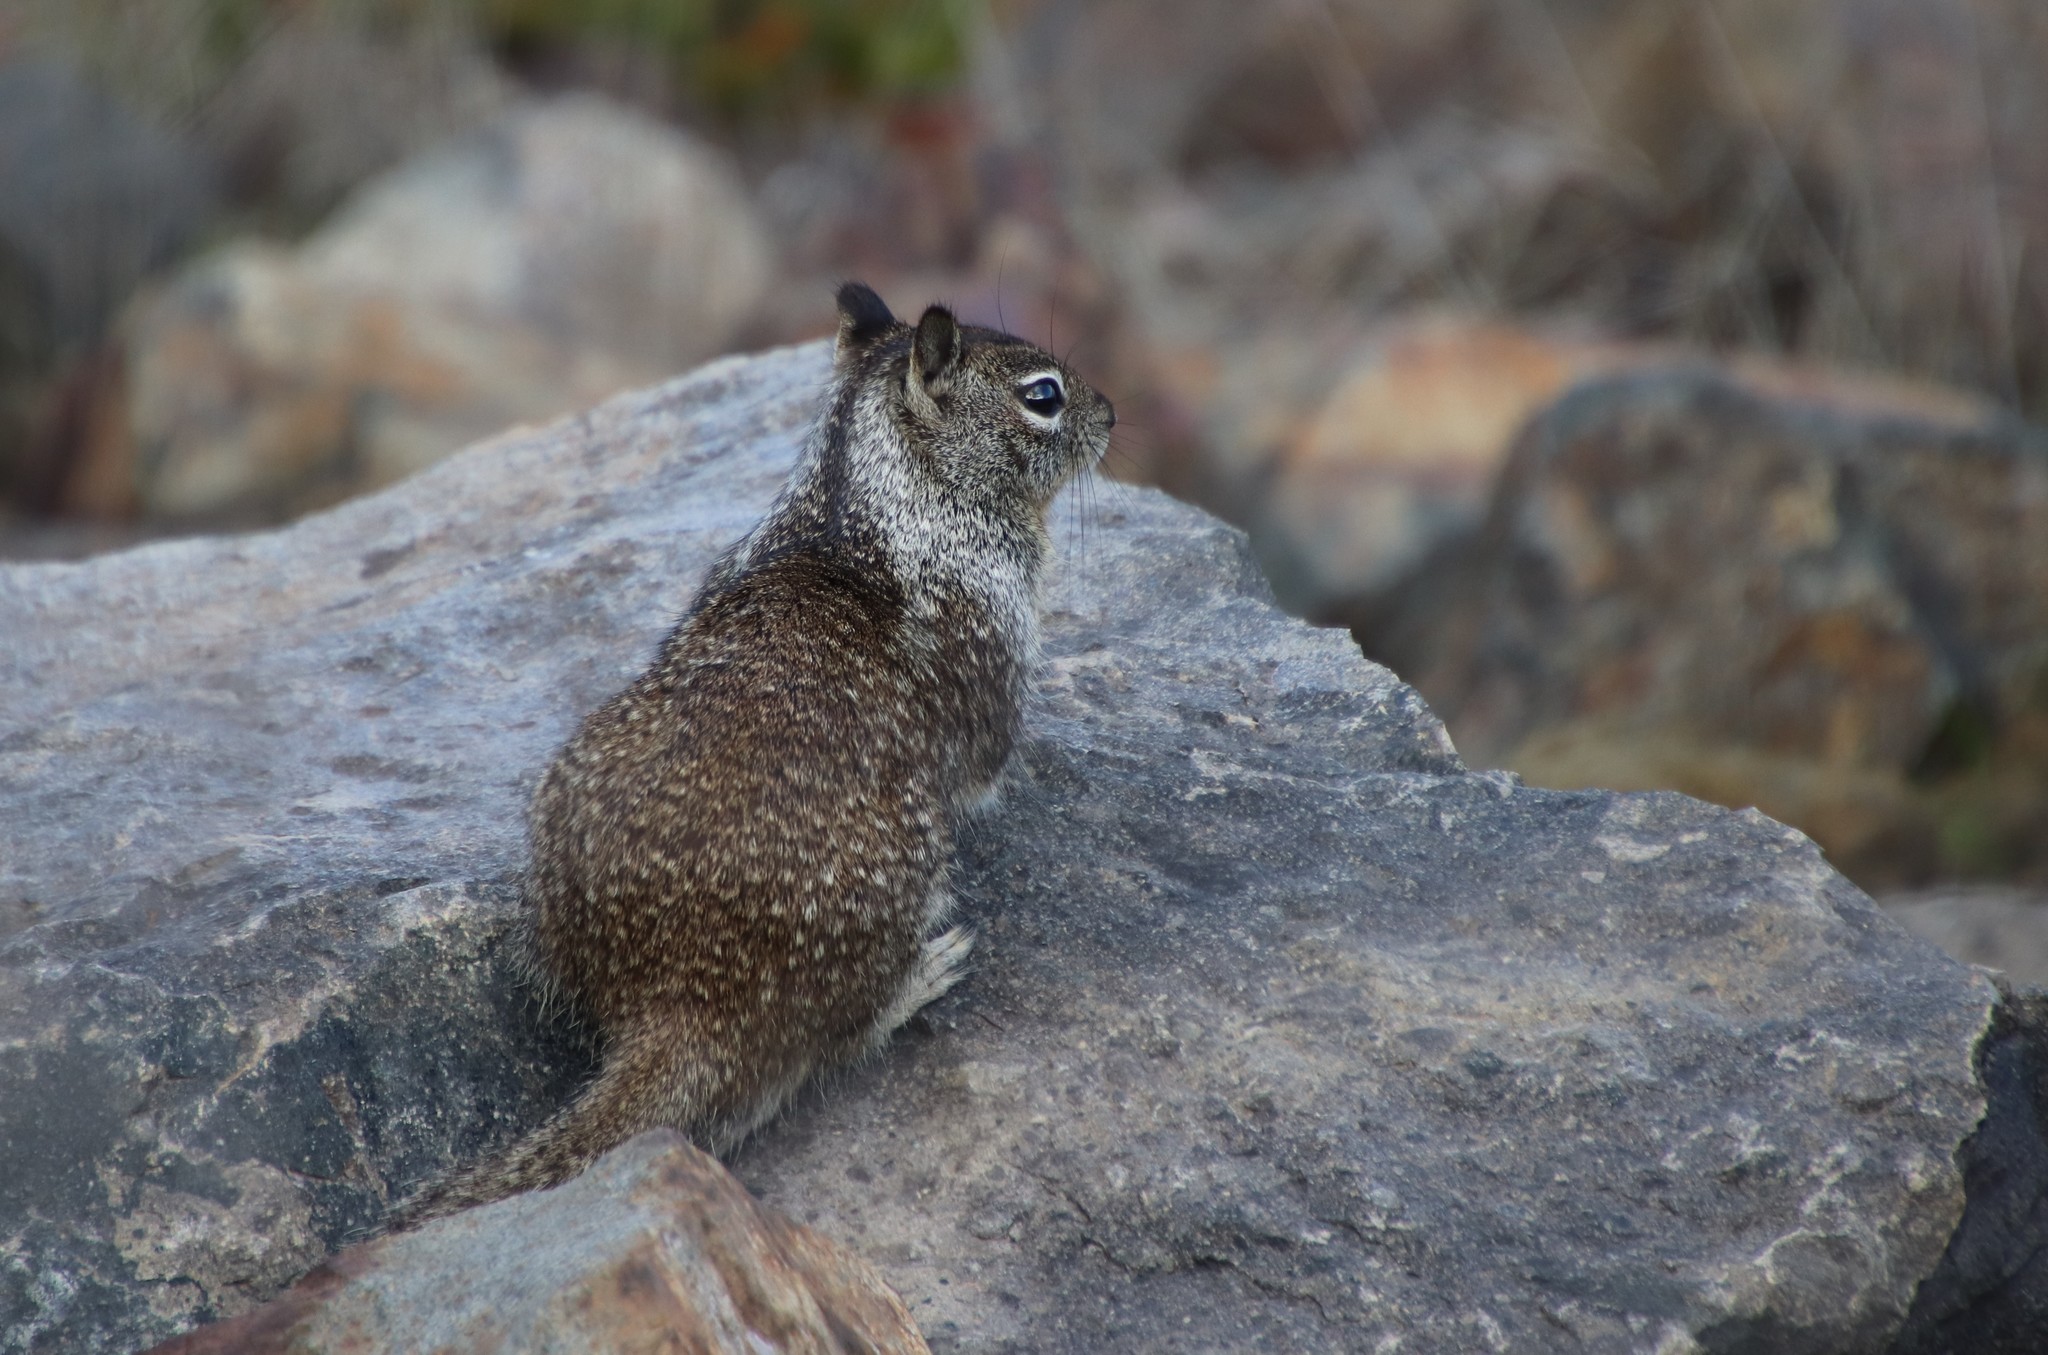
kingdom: Animalia
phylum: Chordata
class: Mammalia
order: Rodentia
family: Sciuridae
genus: Otospermophilus
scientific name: Otospermophilus beecheyi
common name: California ground squirrel
